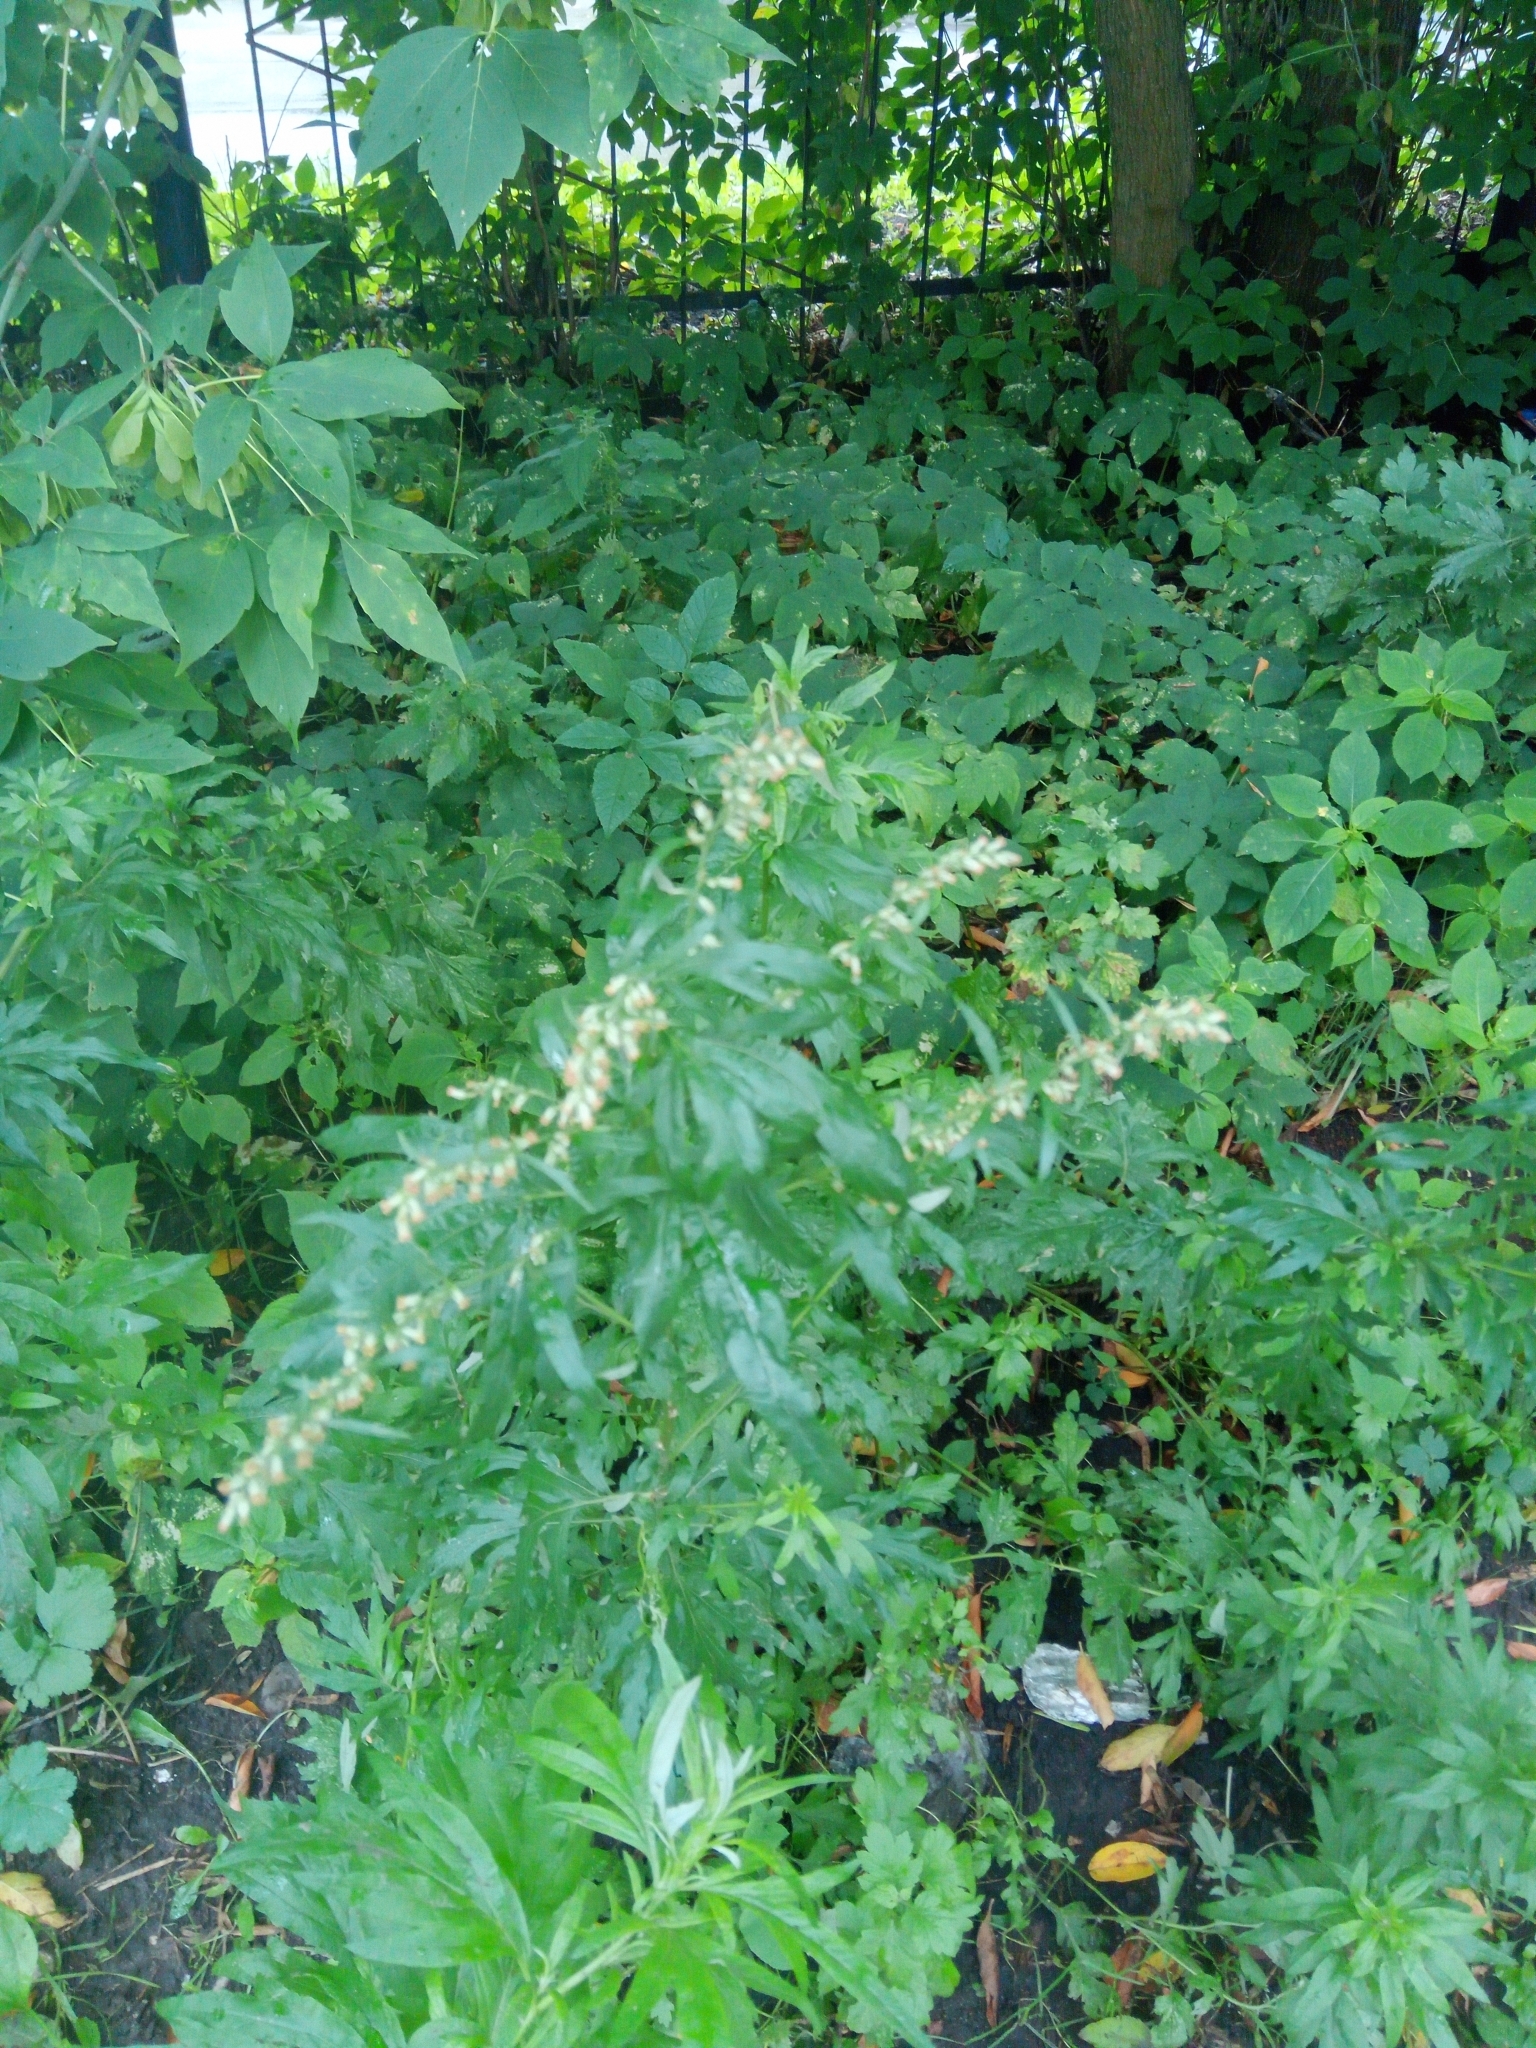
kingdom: Plantae
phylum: Tracheophyta
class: Magnoliopsida
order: Asterales
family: Asteraceae
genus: Artemisia
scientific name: Artemisia vulgaris
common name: Mugwort
